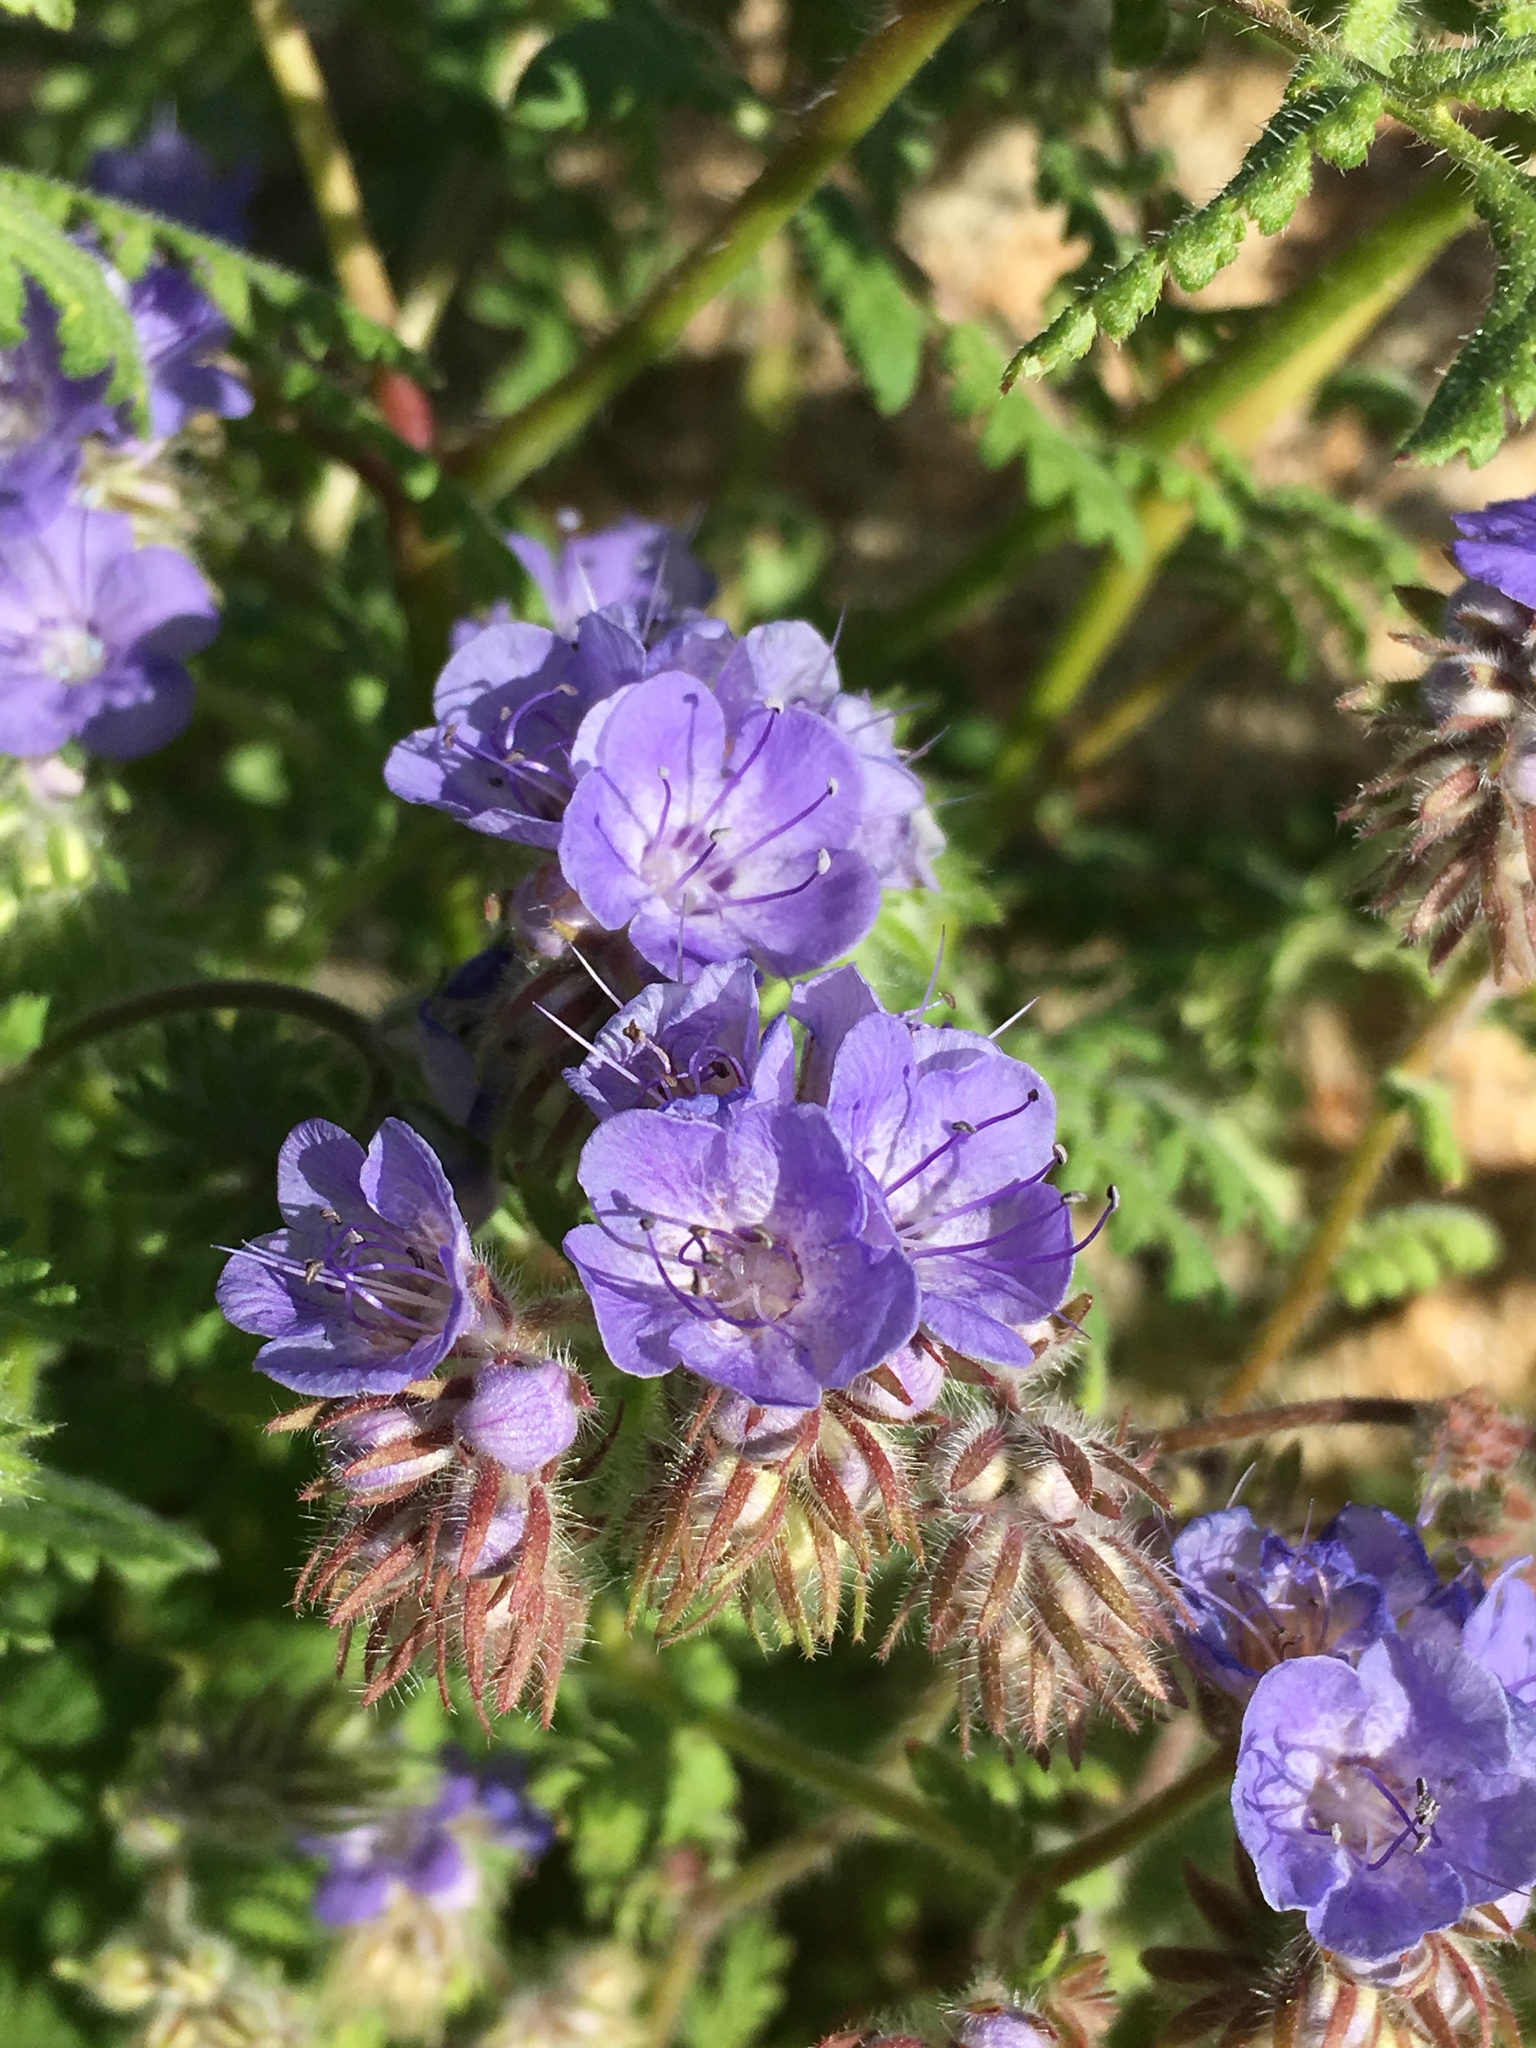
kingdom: Plantae
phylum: Tracheophyta
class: Magnoliopsida
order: Boraginales
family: Hydrophyllaceae
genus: Phacelia
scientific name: Phacelia distans
